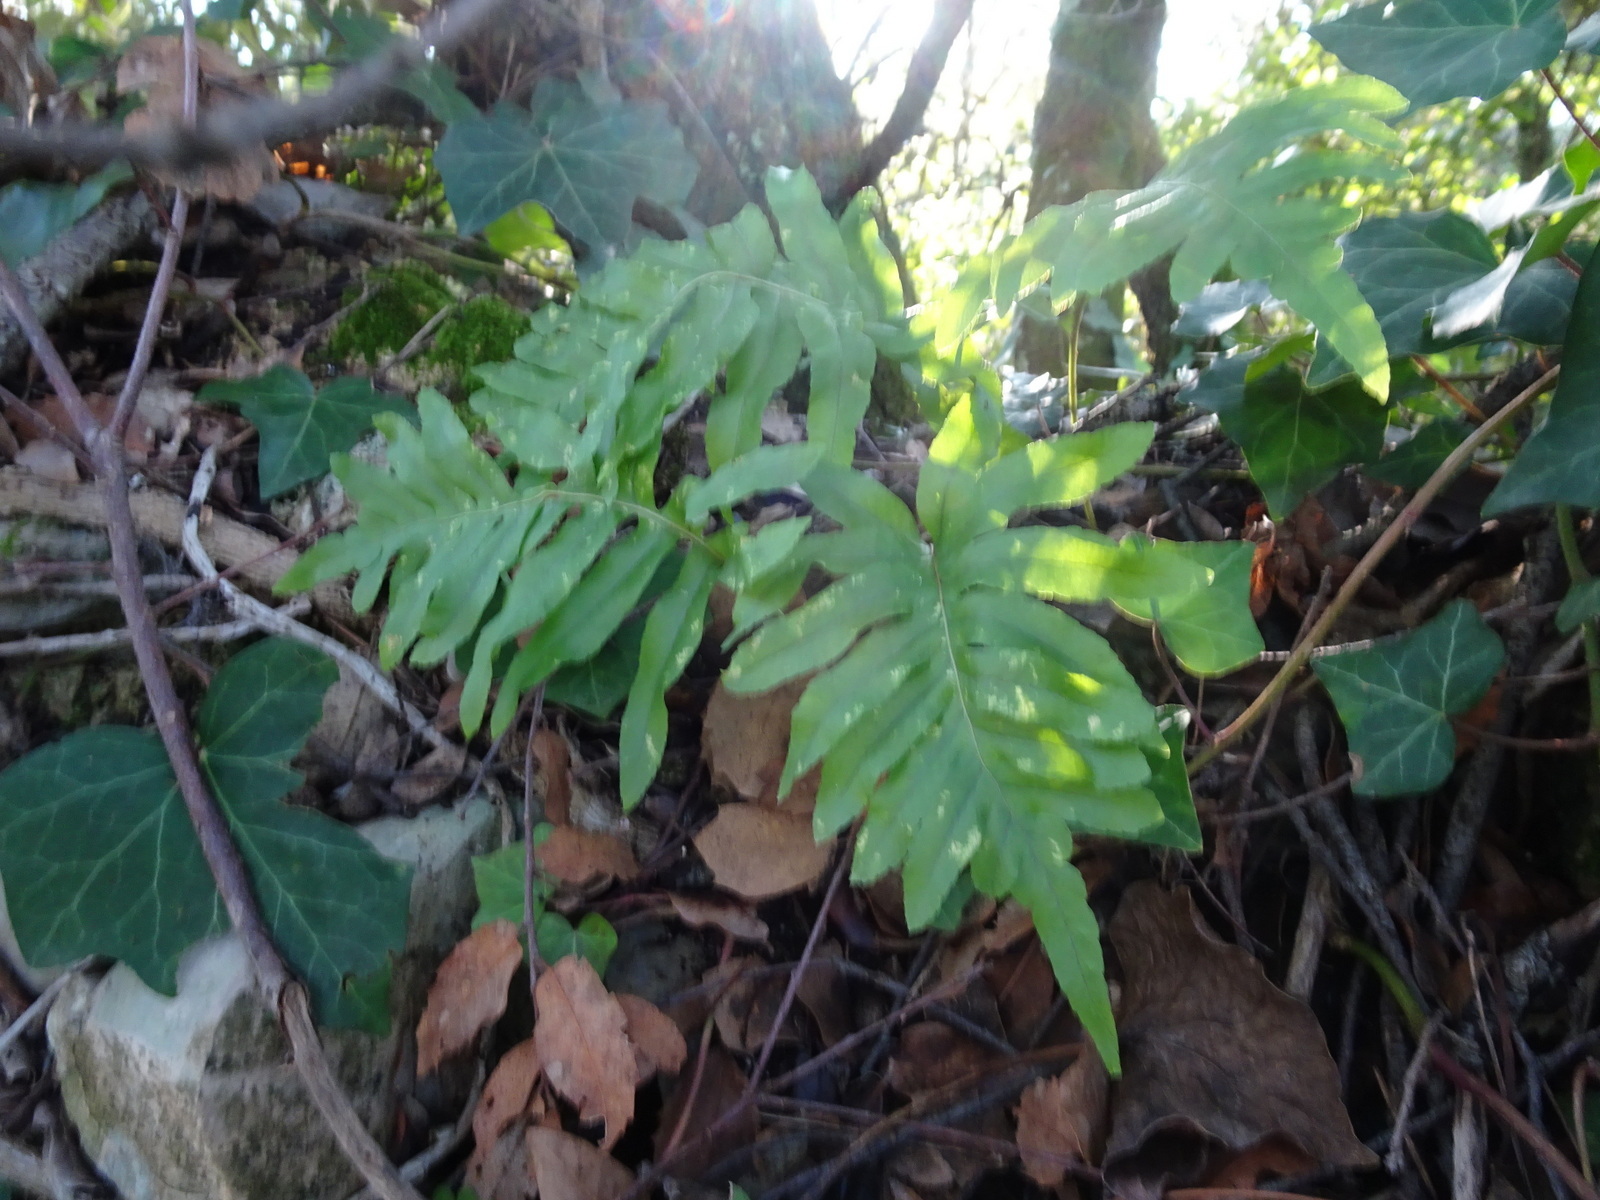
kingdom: Plantae
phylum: Tracheophyta
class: Polypodiopsida
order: Polypodiales
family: Polypodiaceae
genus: Polypodium
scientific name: Polypodium cambricum
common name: Southern polypody
